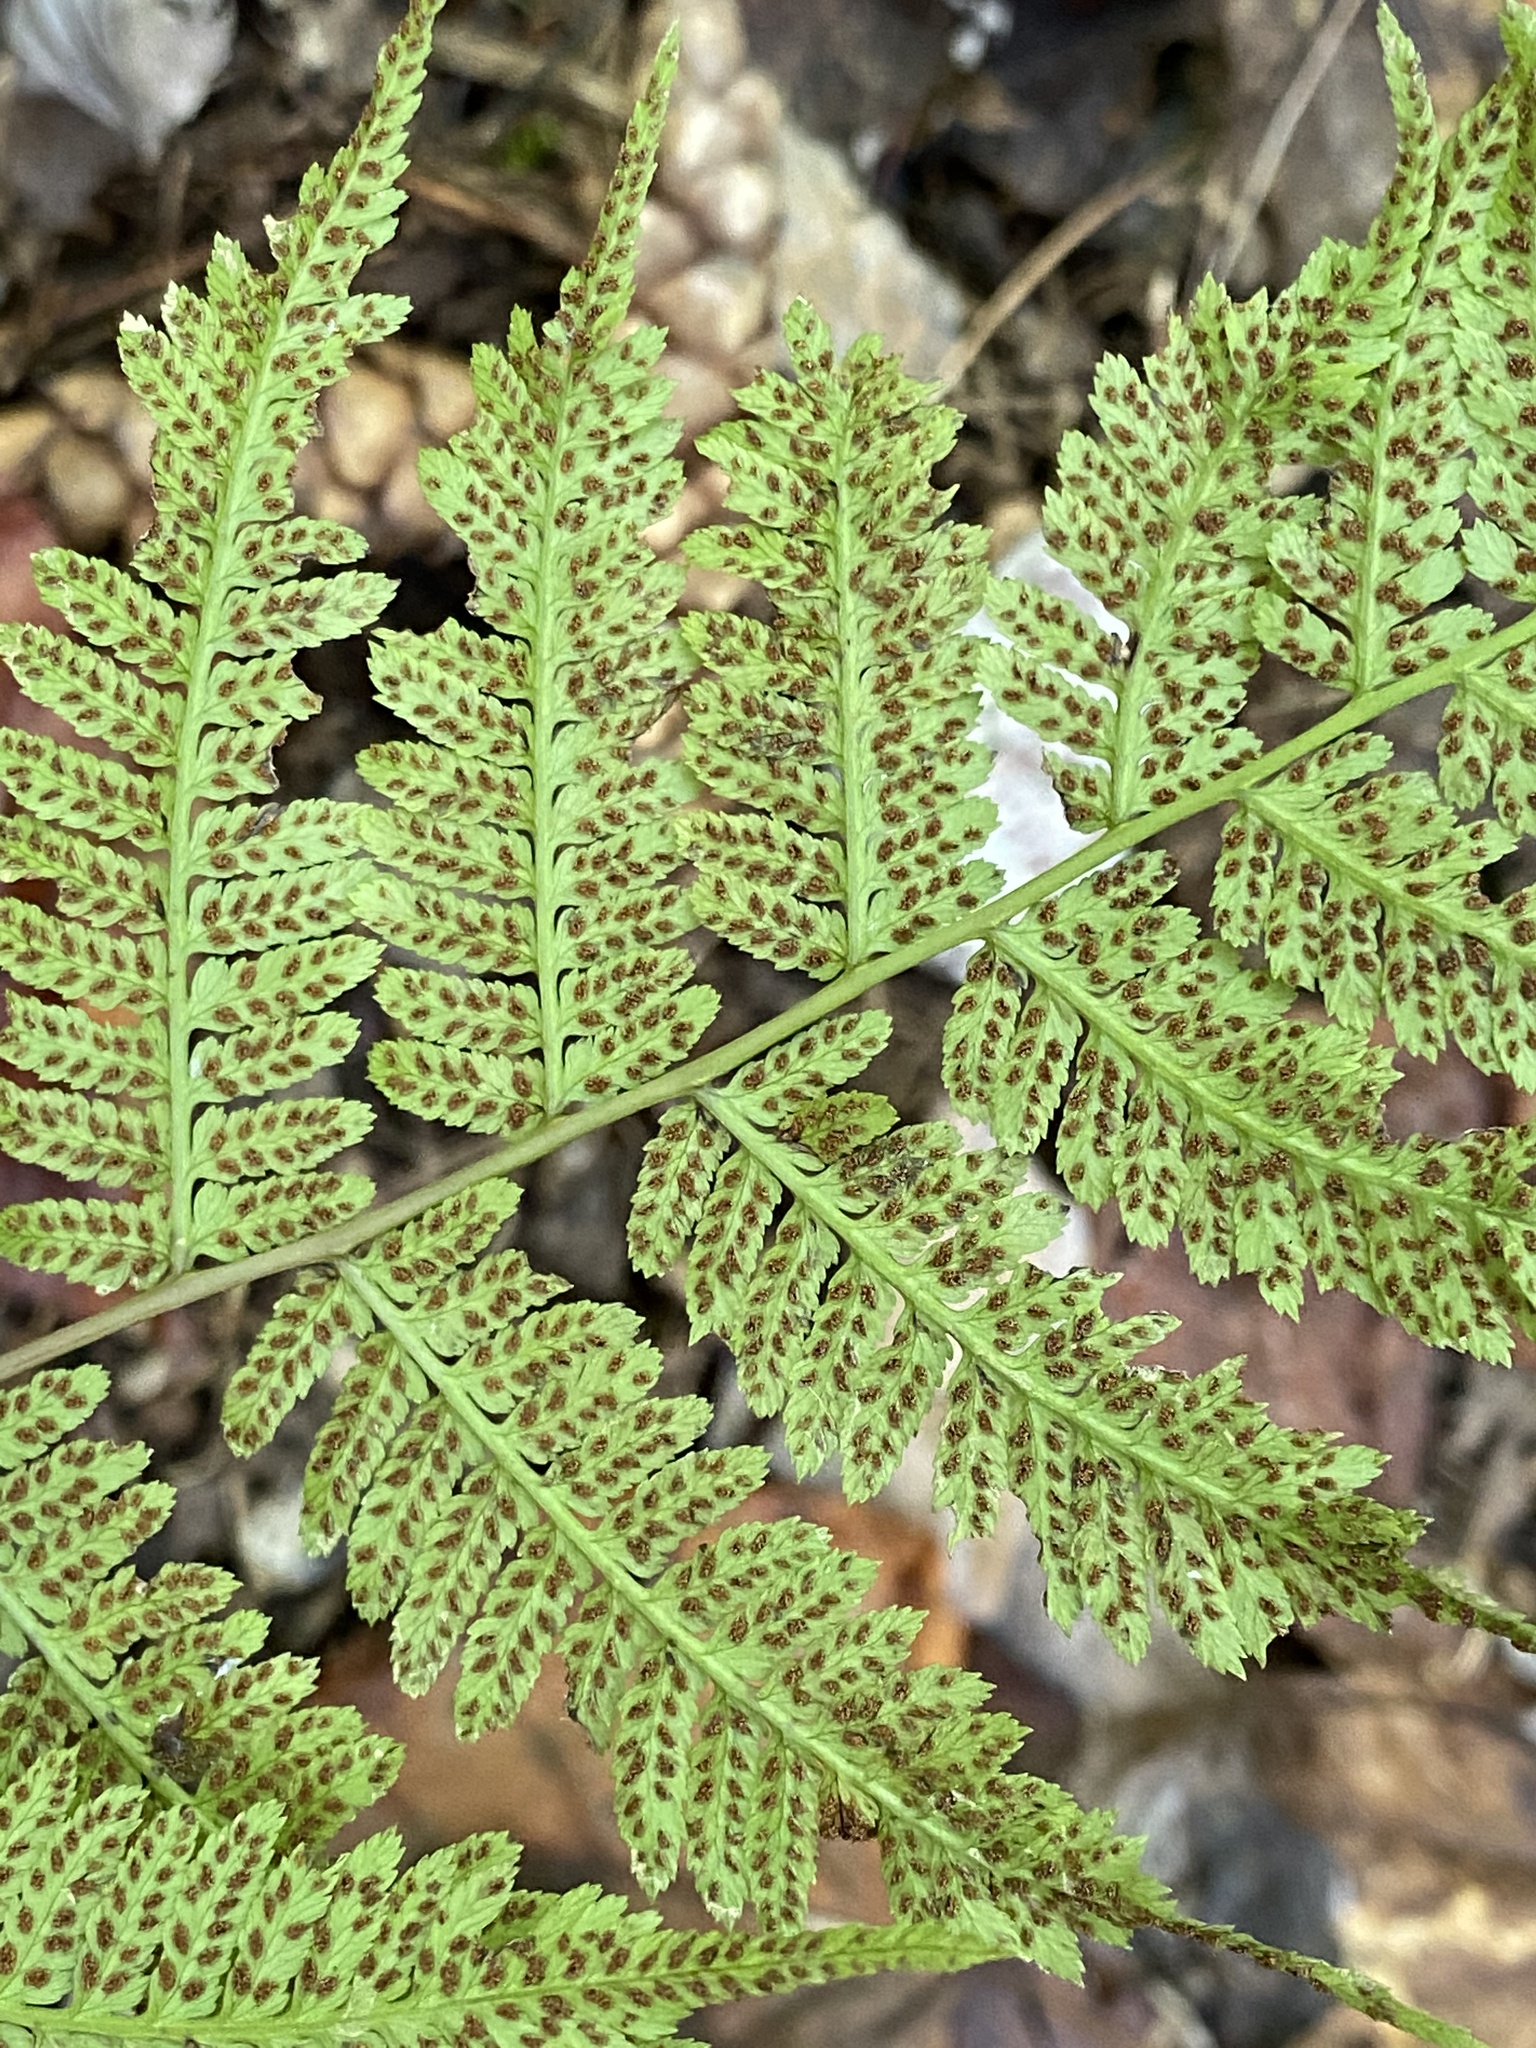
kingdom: Plantae
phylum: Tracheophyta
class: Polypodiopsida
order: Polypodiales
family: Athyriaceae
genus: Athyrium
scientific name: Athyrium asplenioides
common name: Southern lady fern
